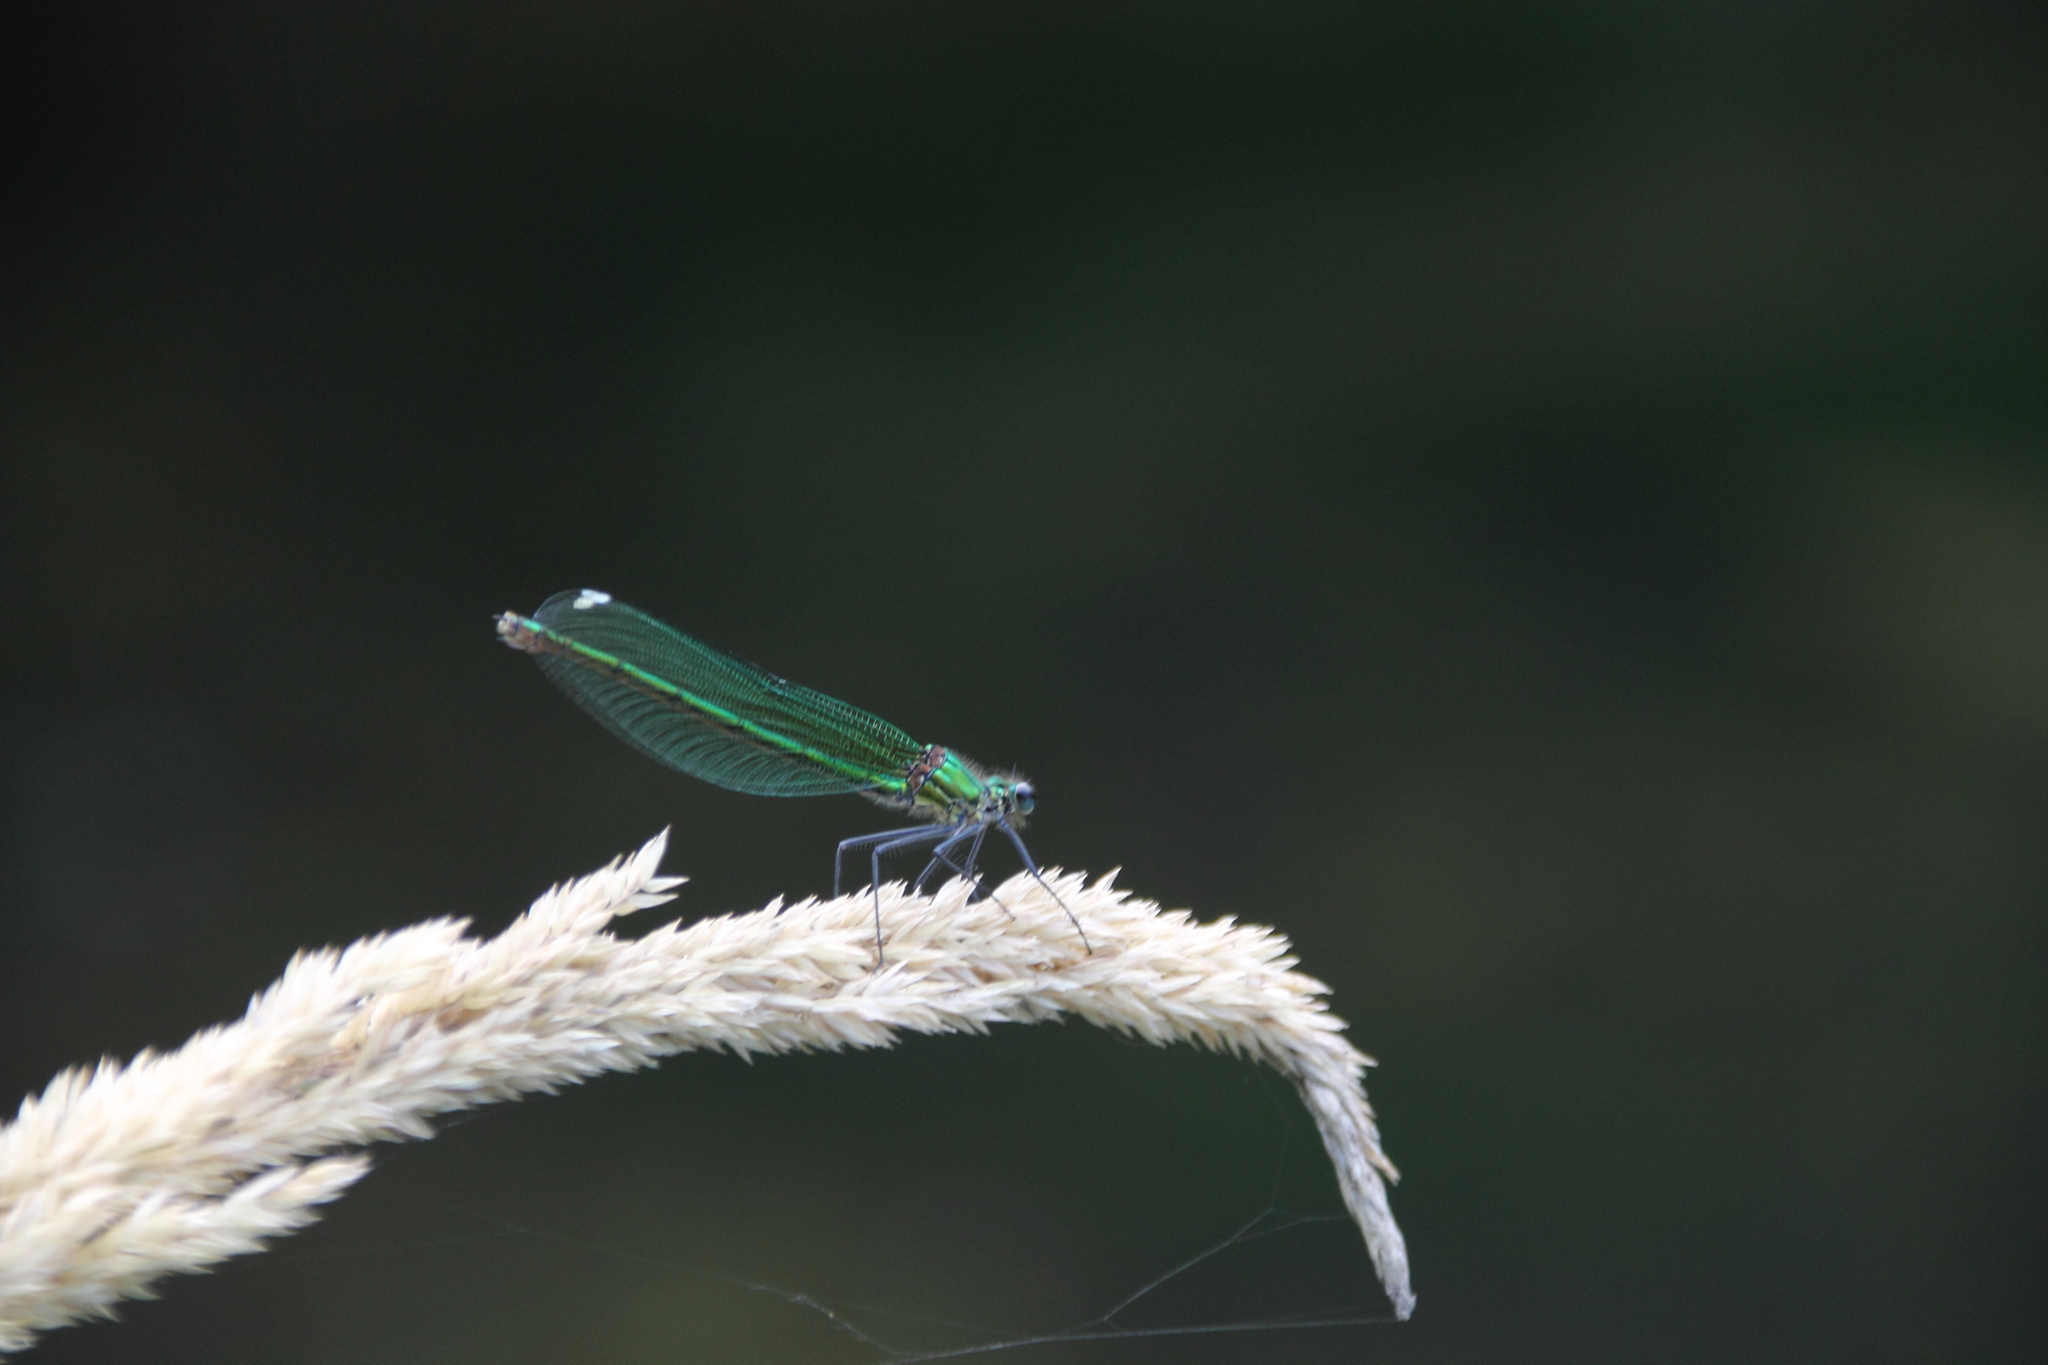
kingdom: Animalia
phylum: Arthropoda
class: Insecta
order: Odonata
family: Calopterygidae
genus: Calopteryx
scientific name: Calopteryx splendens
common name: Banded demoiselle
